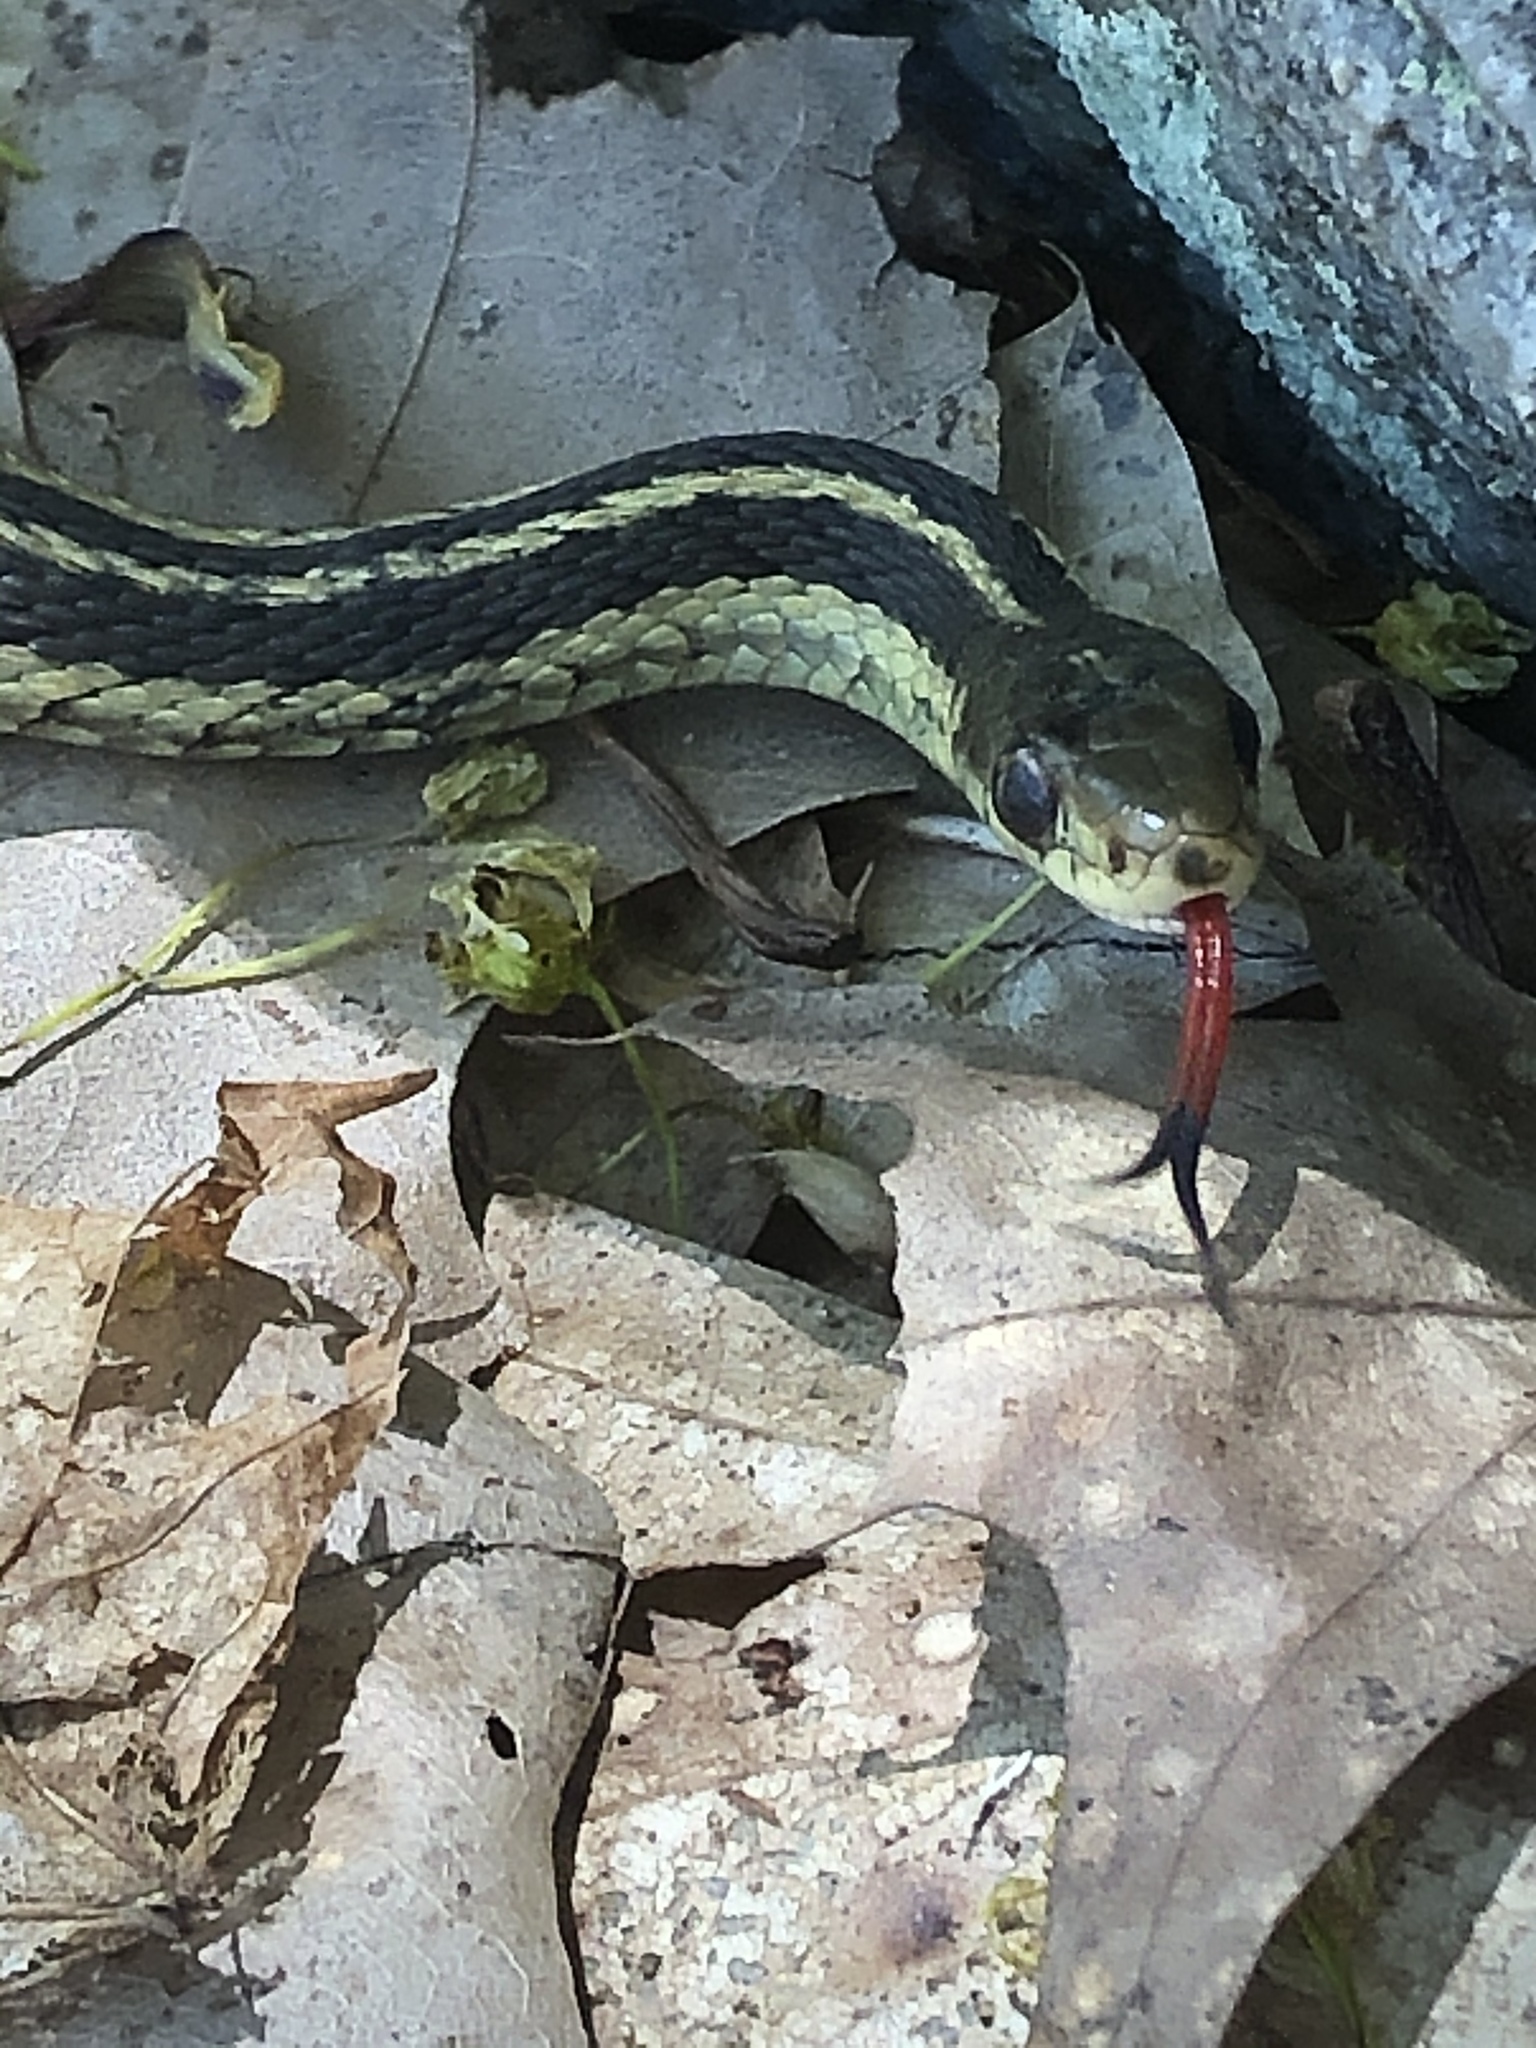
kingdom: Animalia
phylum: Chordata
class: Squamata
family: Colubridae
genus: Thamnophis
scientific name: Thamnophis sirtalis
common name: Common garter snake
